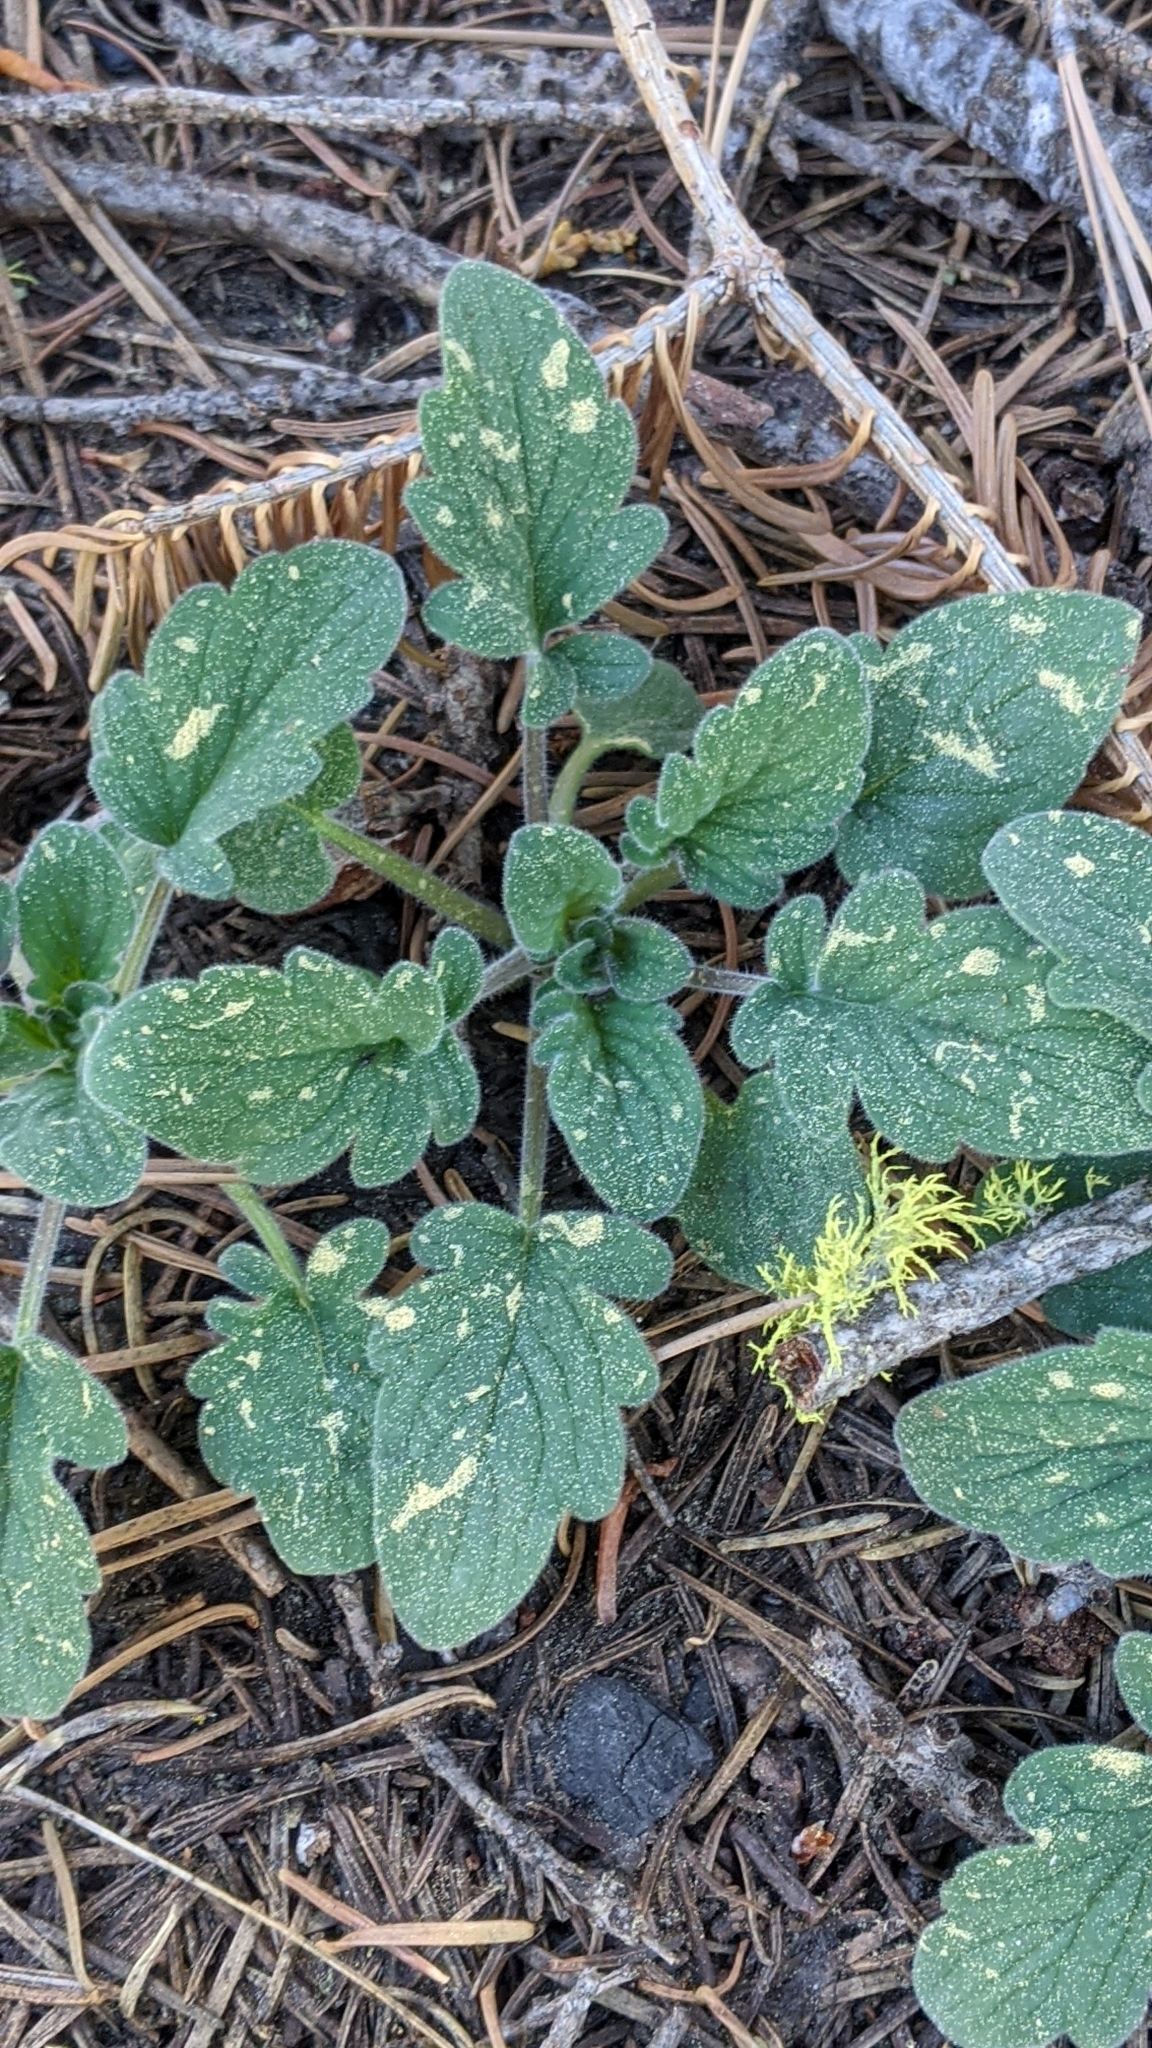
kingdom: Plantae
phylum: Tracheophyta
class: Magnoliopsida
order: Boraginales
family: Hydrophyllaceae
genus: Phacelia
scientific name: Phacelia hydrophylloides
